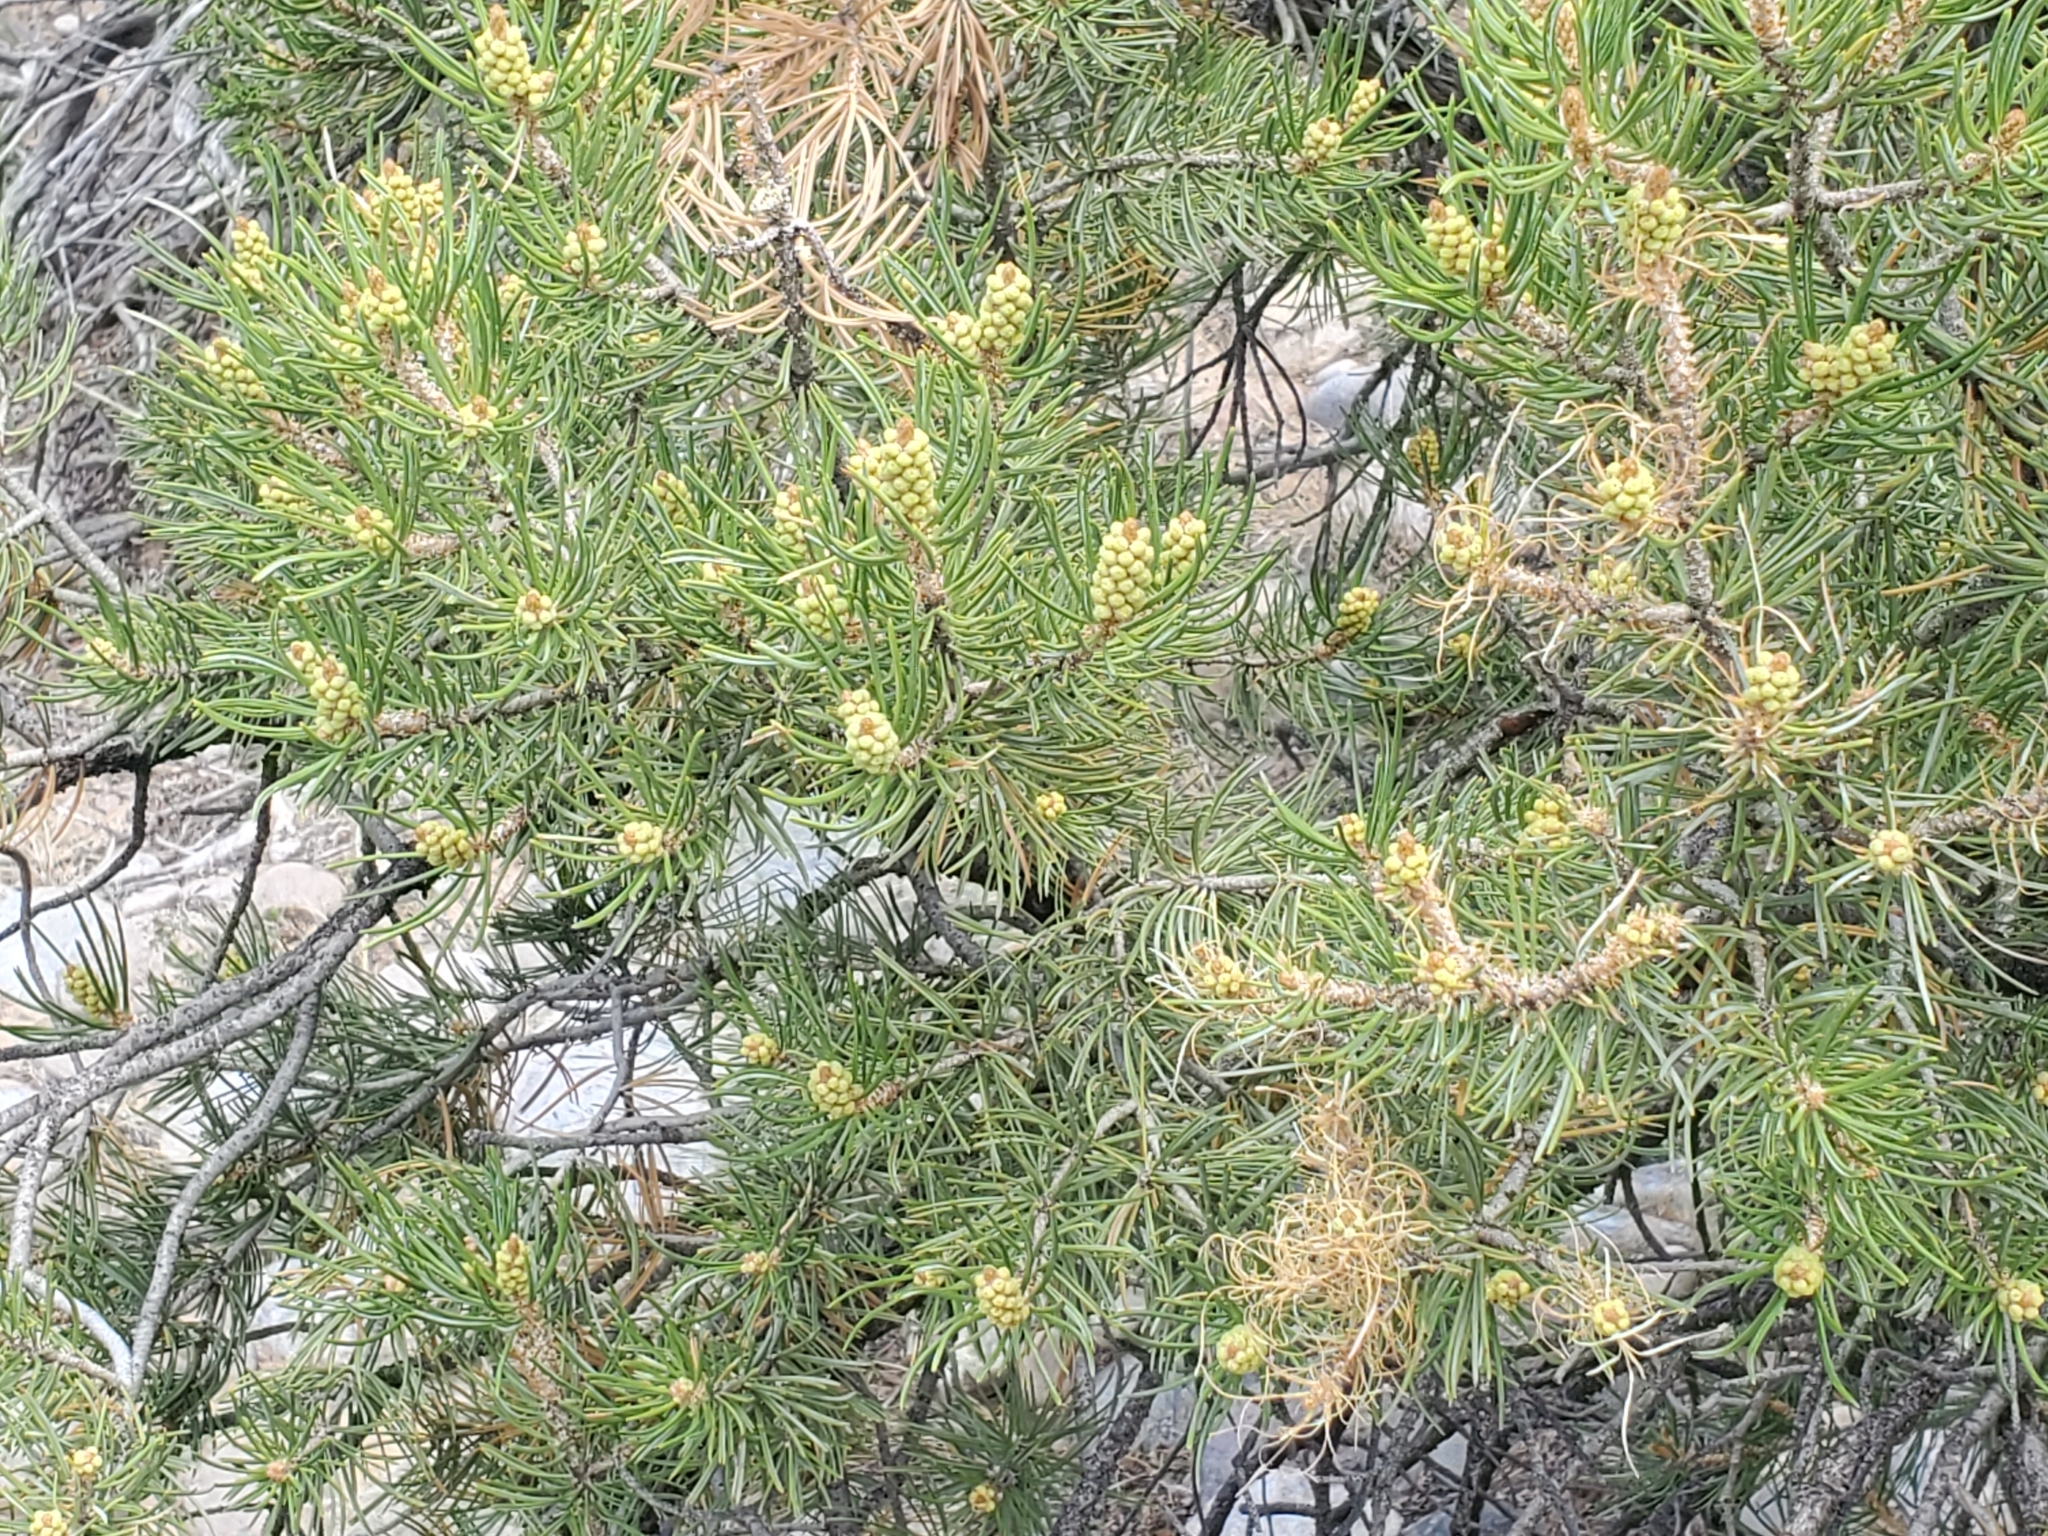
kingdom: Plantae
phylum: Tracheophyta
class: Pinopsida
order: Pinales
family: Pinaceae
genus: Pinus
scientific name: Pinus edulis
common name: Colorado pinyon
